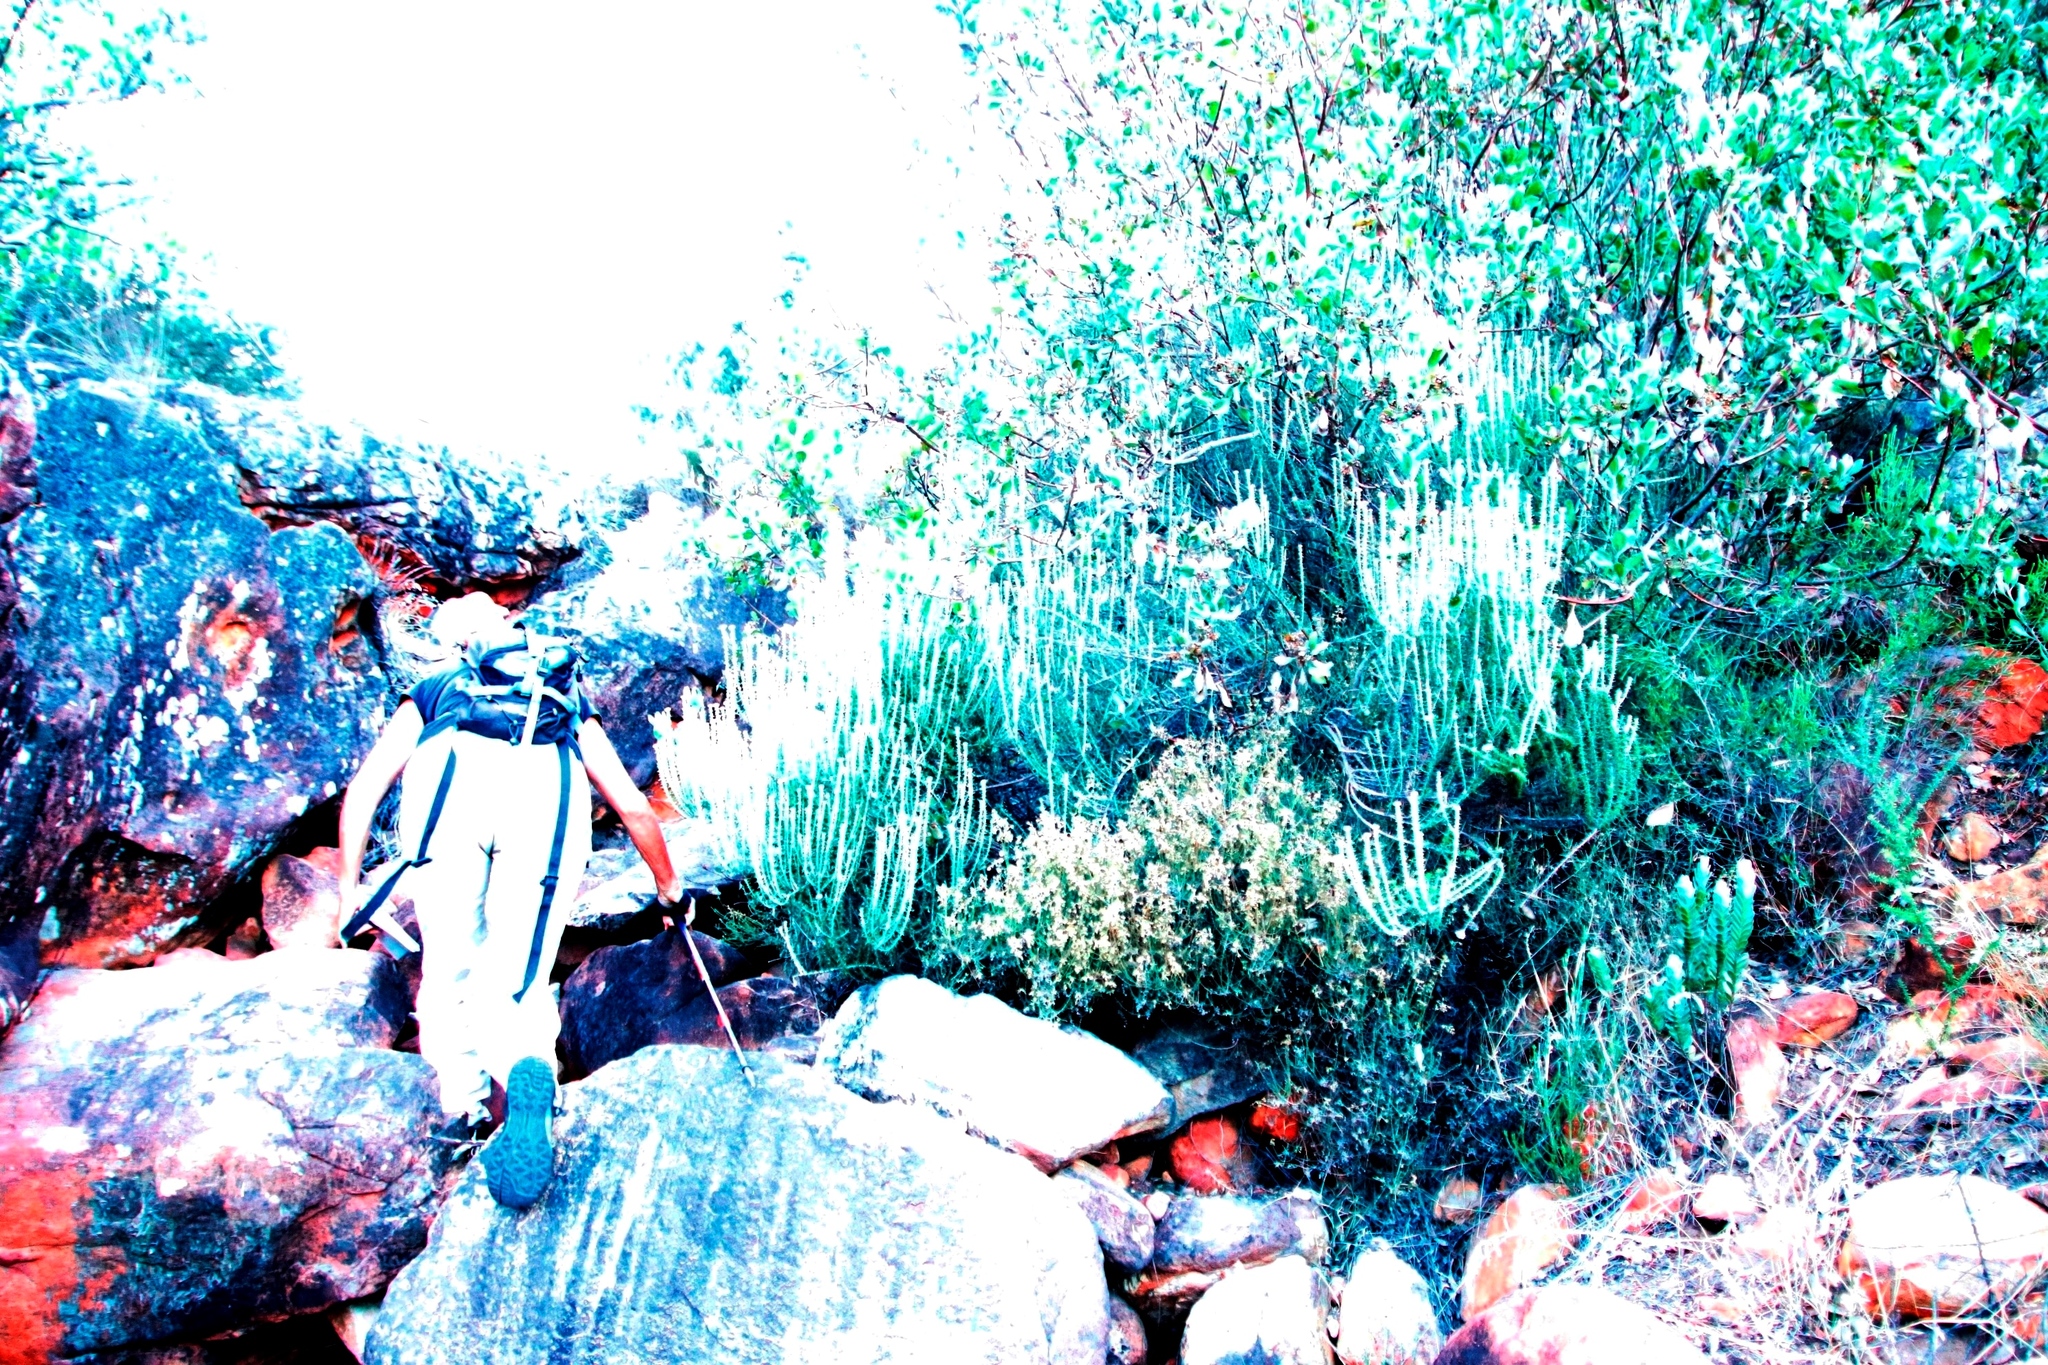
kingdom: Plantae
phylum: Tracheophyta
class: Magnoliopsida
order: Asterales
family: Asteraceae
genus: Metalasia
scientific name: Metalasia densa
